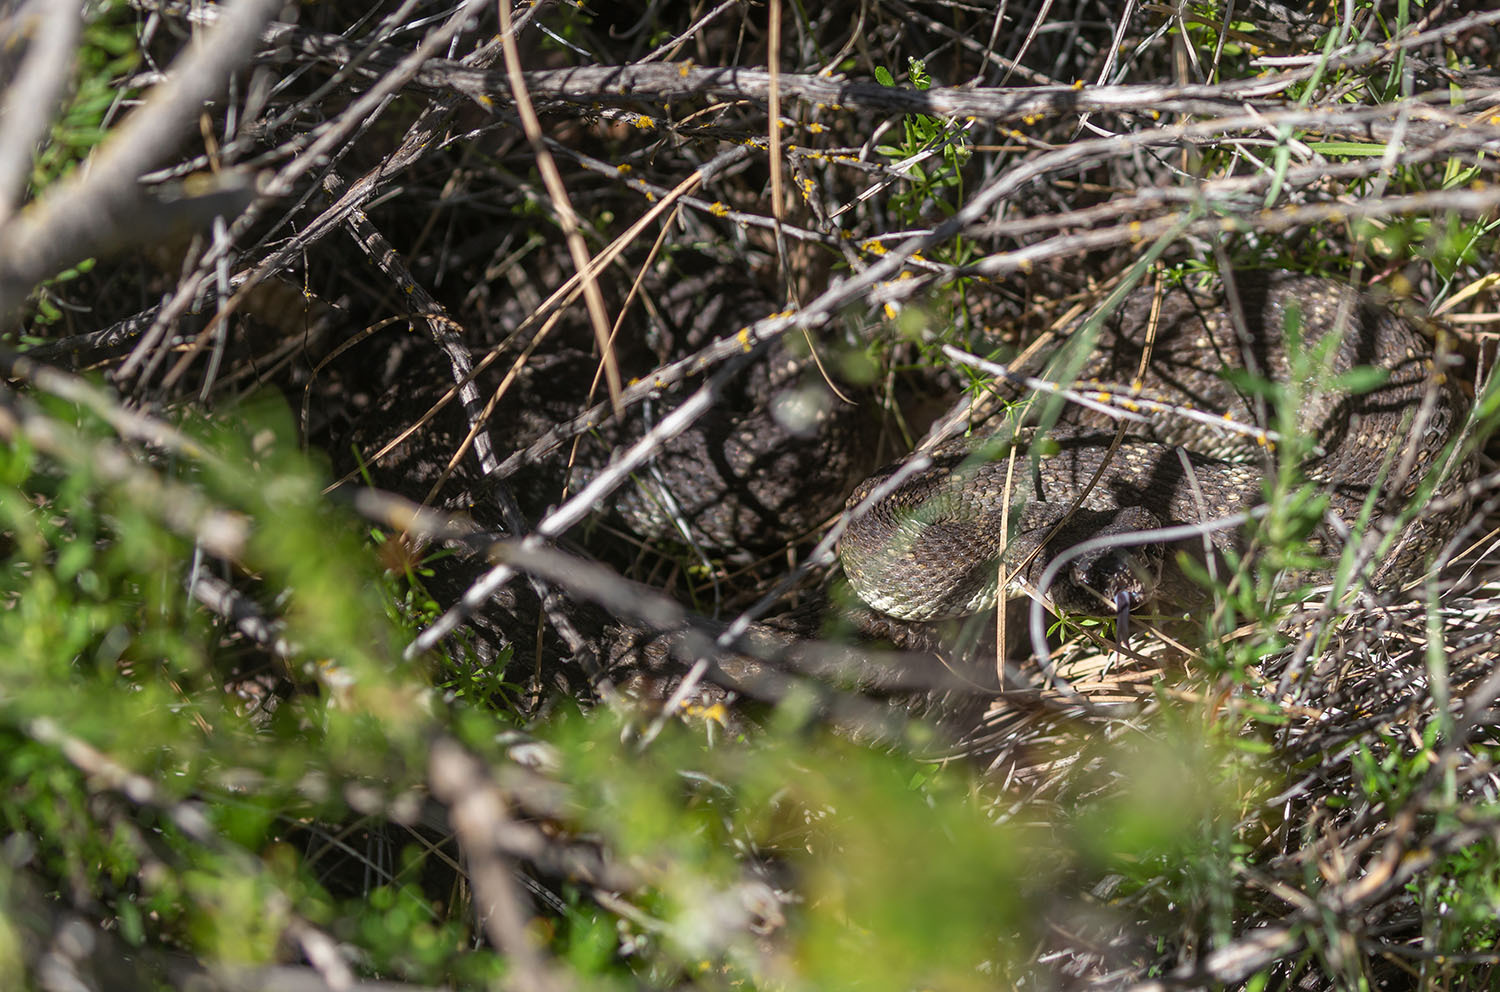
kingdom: Animalia
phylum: Chordata
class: Squamata
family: Viperidae
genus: Crotalus
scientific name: Crotalus oreganus
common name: Abyssus
